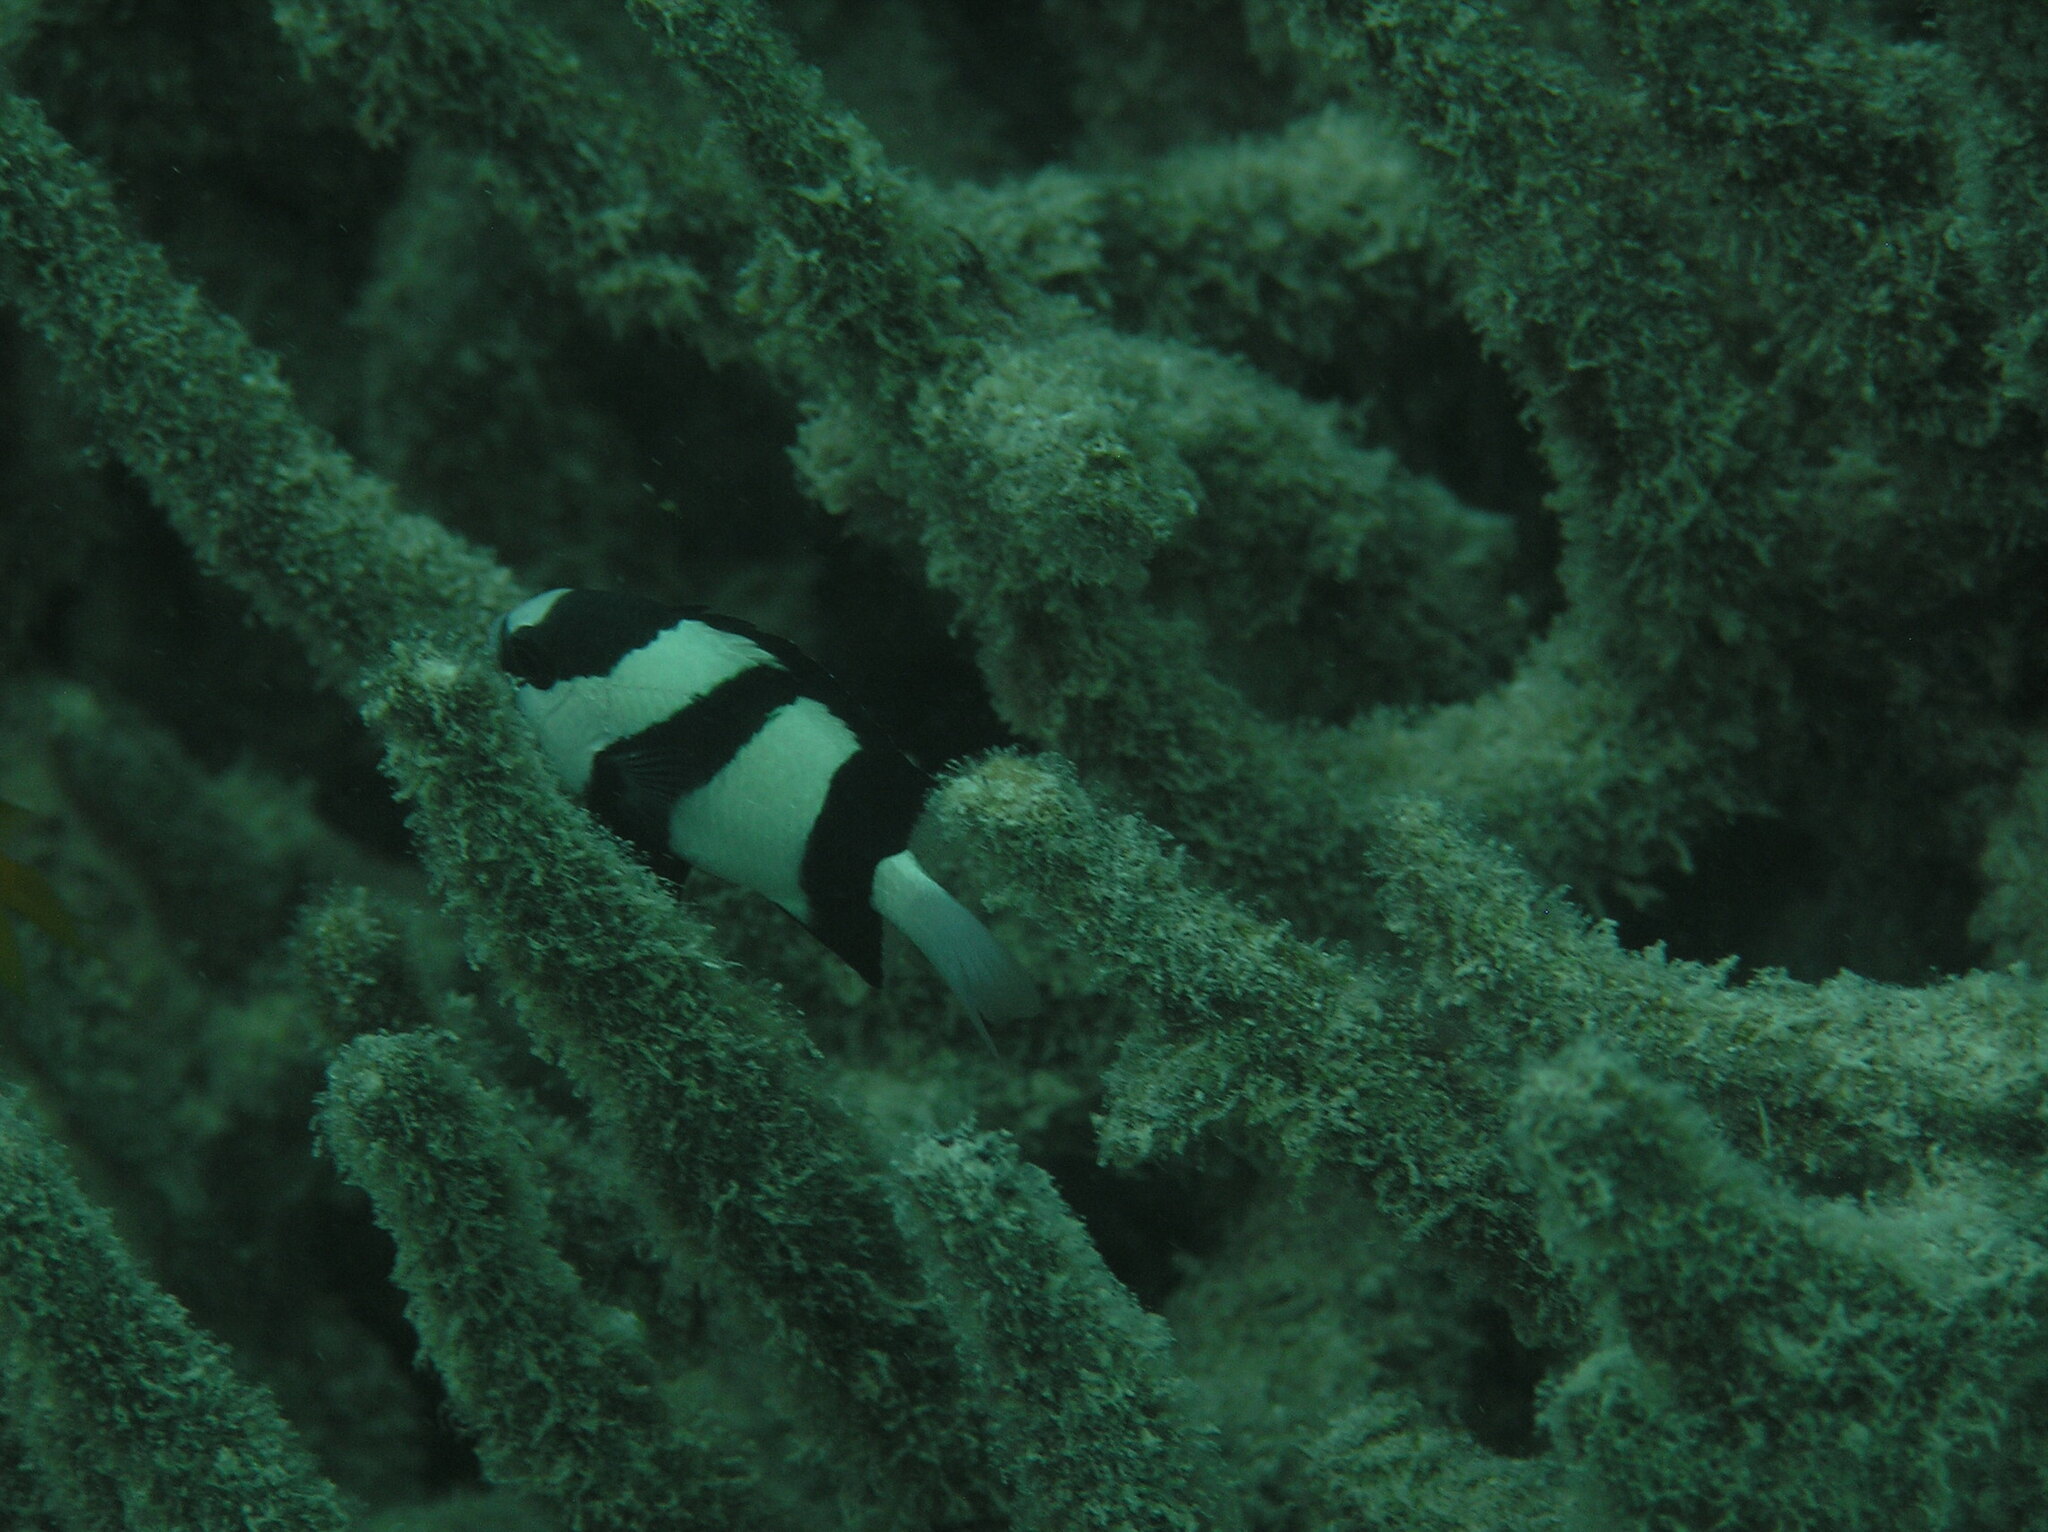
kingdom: Animalia
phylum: Chordata
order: Perciformes
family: Pomacentridae
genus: Dascyllus
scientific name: Dascyllus aruanus
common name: Humbug dascyllus
